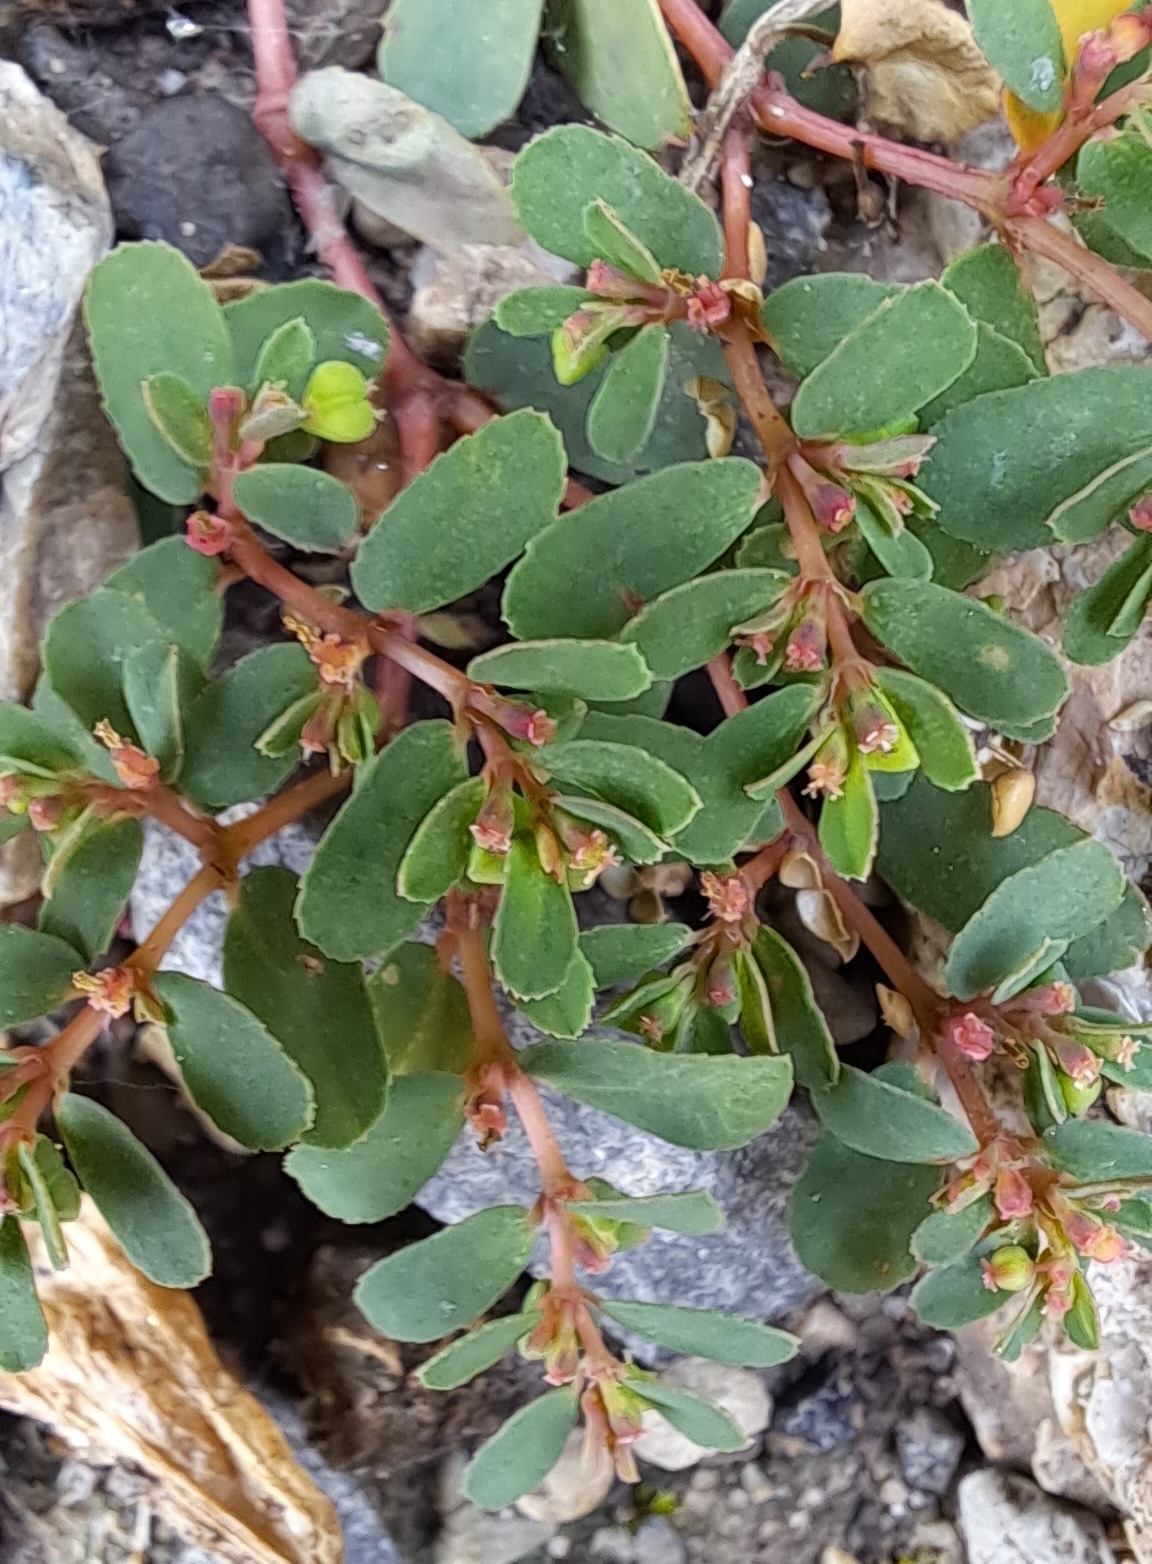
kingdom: Plantae
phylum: Tracheophyta
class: Magnoliopsida
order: Malpighiales
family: Euphorbiaceae
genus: Euphorbia
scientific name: Euphorbia humifusa
